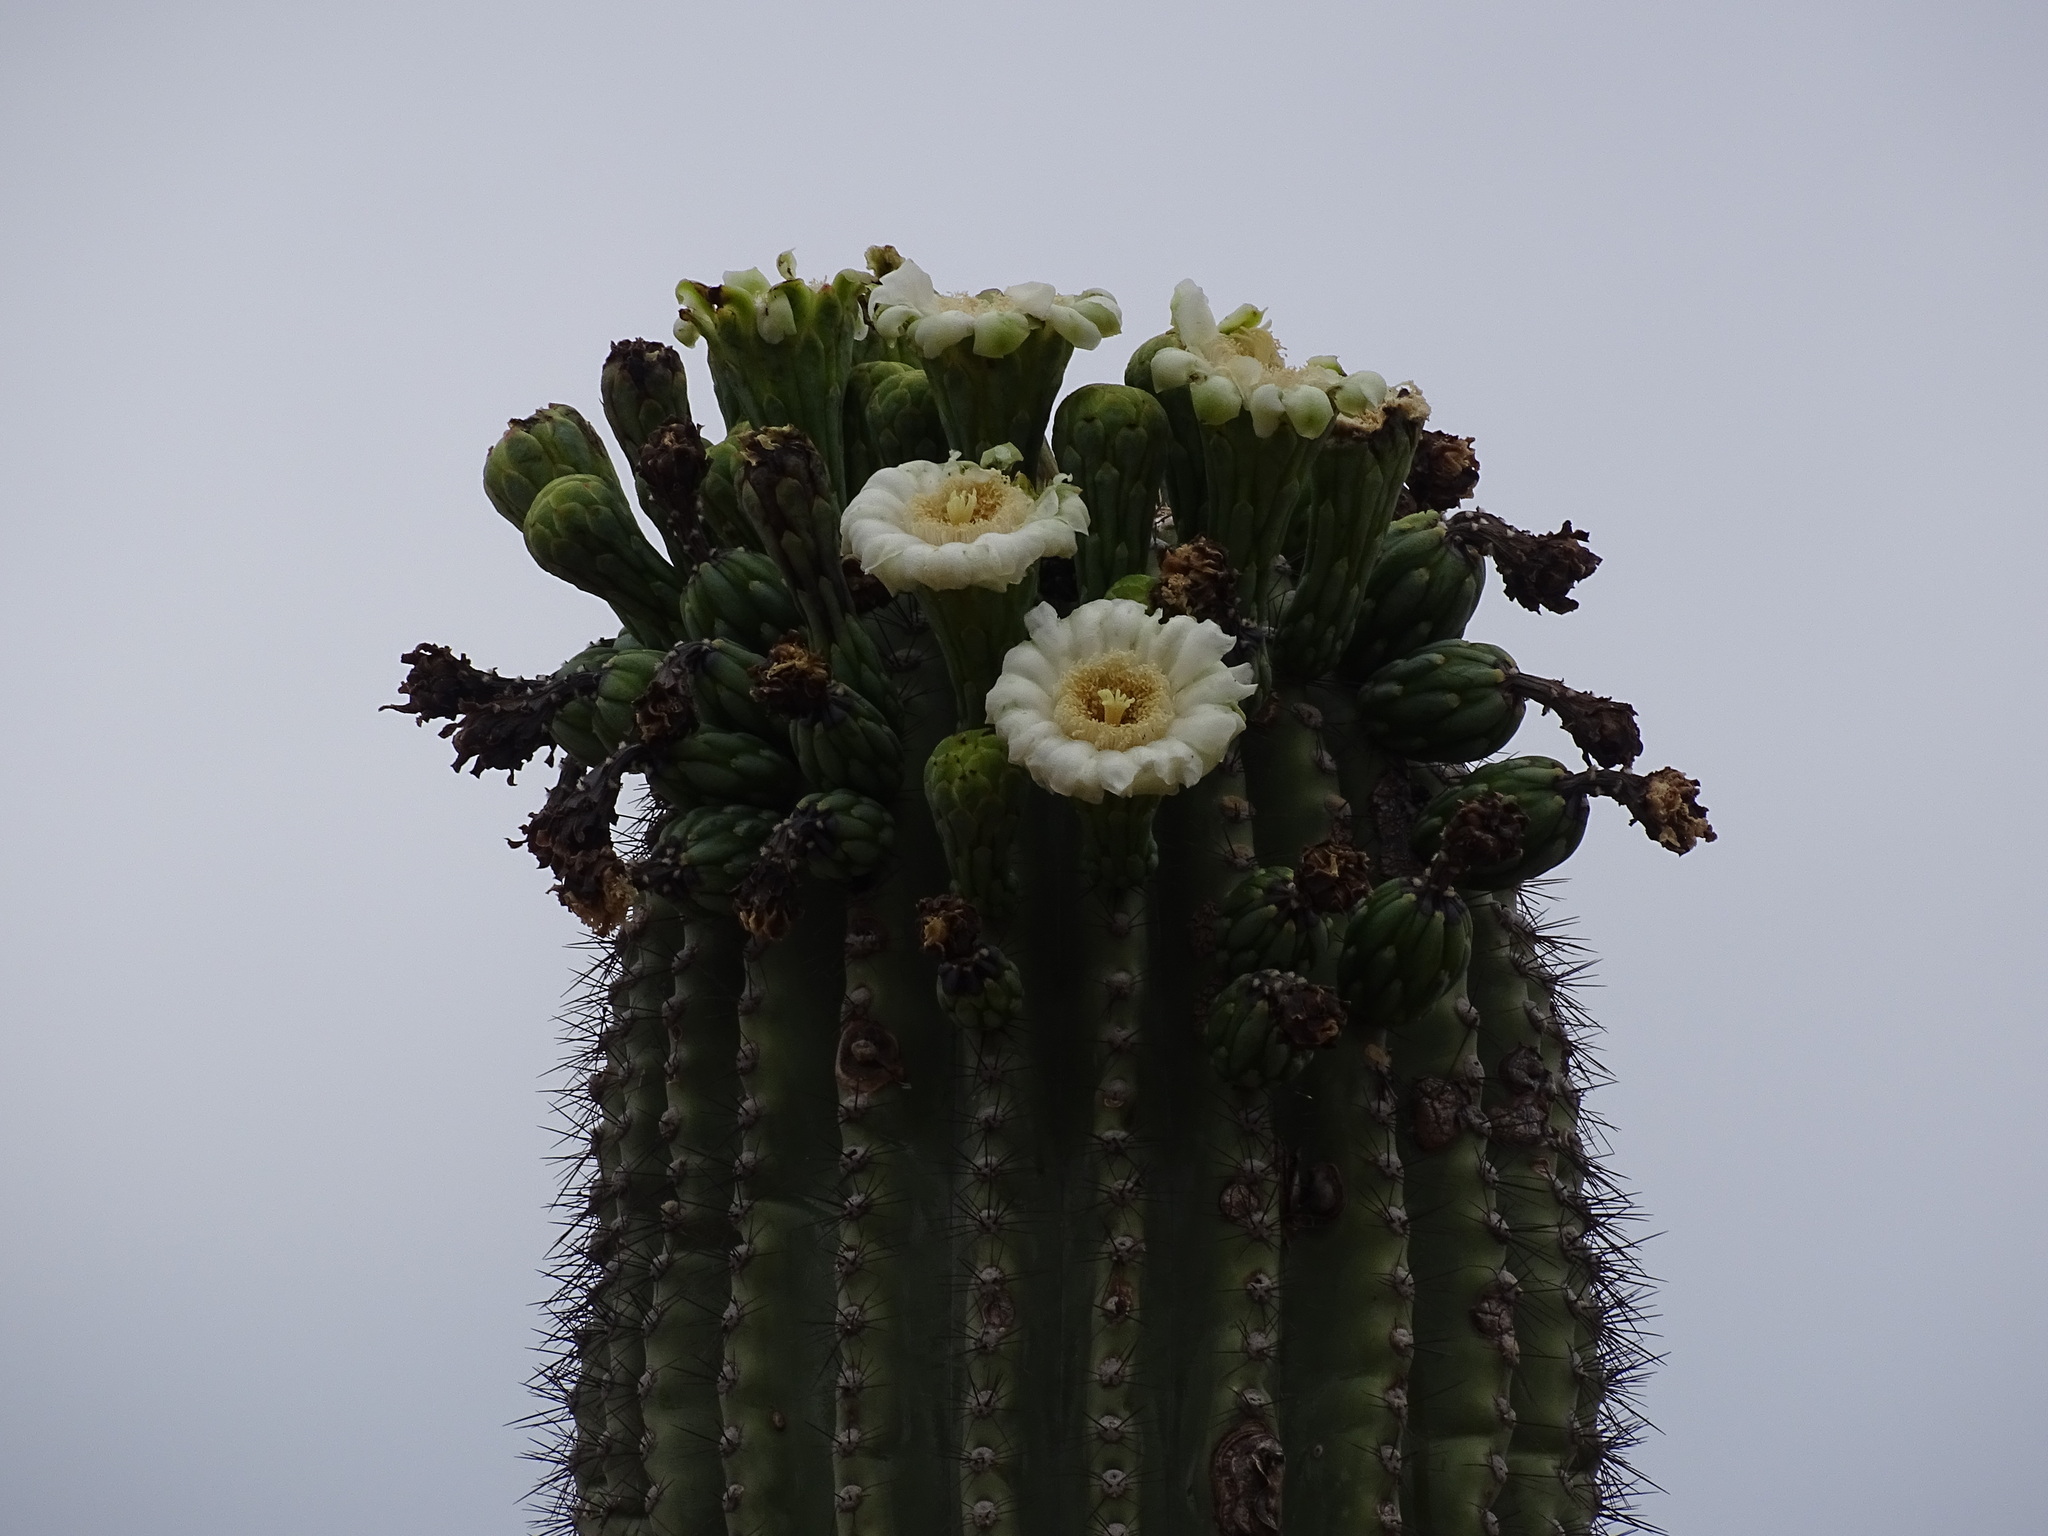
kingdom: Plantae
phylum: Tracheophyta
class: Magnoliopsida
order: Caryophyllales
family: Cactaceae
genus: Carnegiea
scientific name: Carnegiea gigantea
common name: Saguaro
